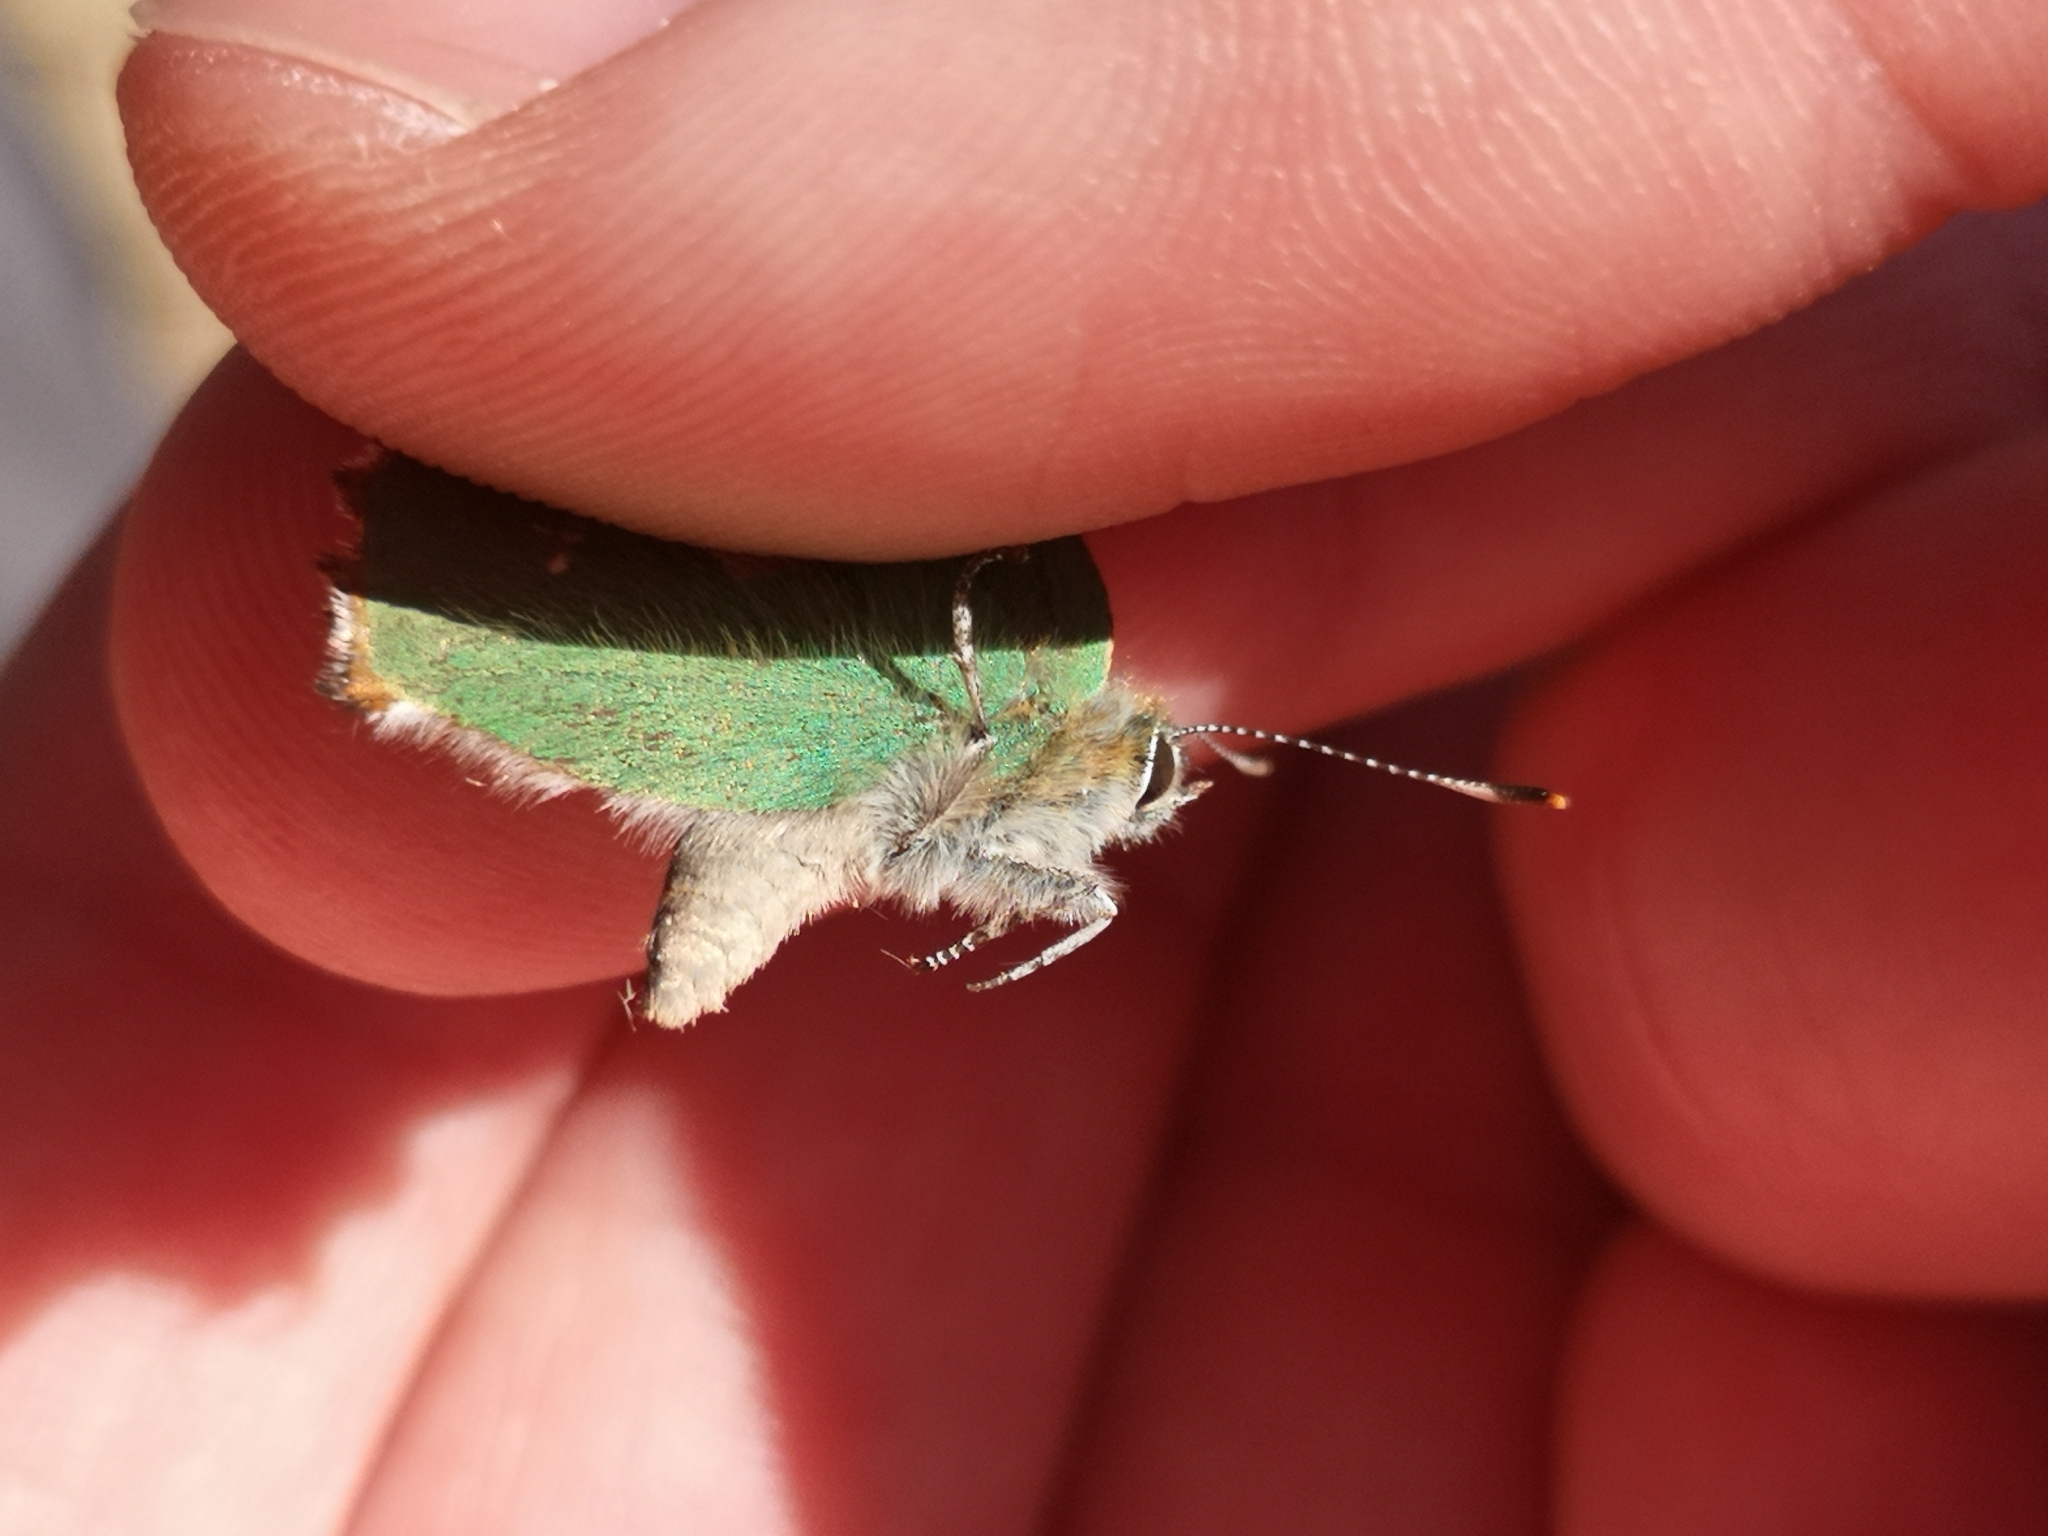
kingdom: Animalia
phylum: Arthropoda
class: Insecta
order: Lepidoptera
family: Lycaenidae
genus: Callophrys
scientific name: Callophrys rubi
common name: Green hairstreak
